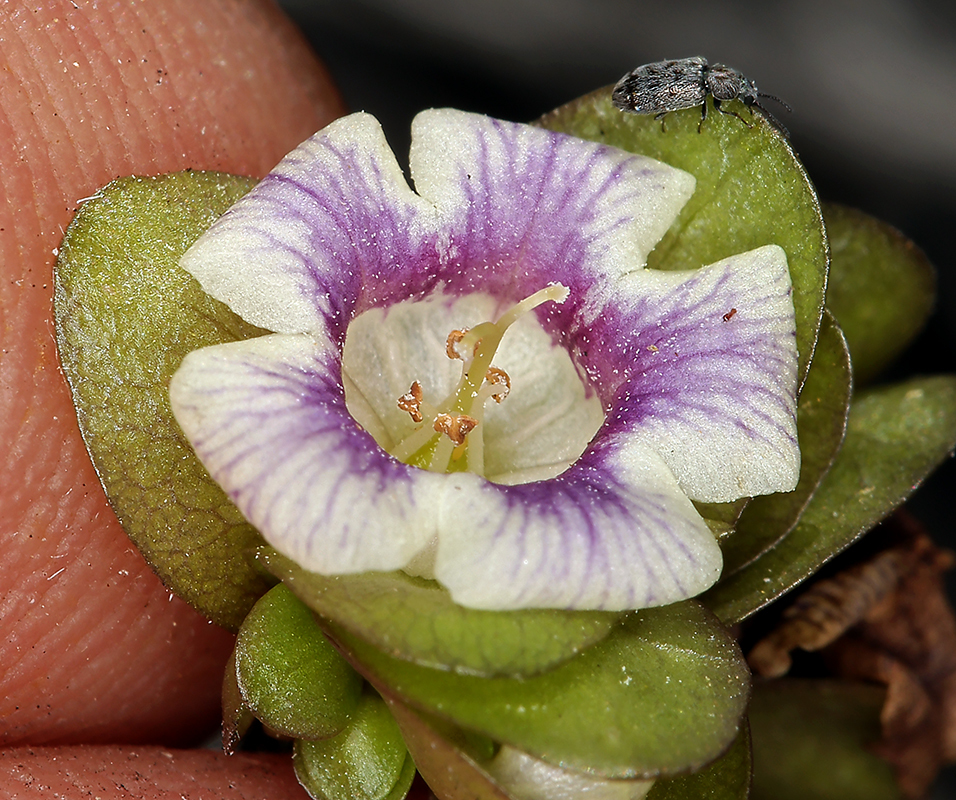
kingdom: Plantae
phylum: Tracheophyta
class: Magnoliopsida
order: Boraginales
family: Hydrophyllaceae
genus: Tricardia
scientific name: Tricardia watsonii
